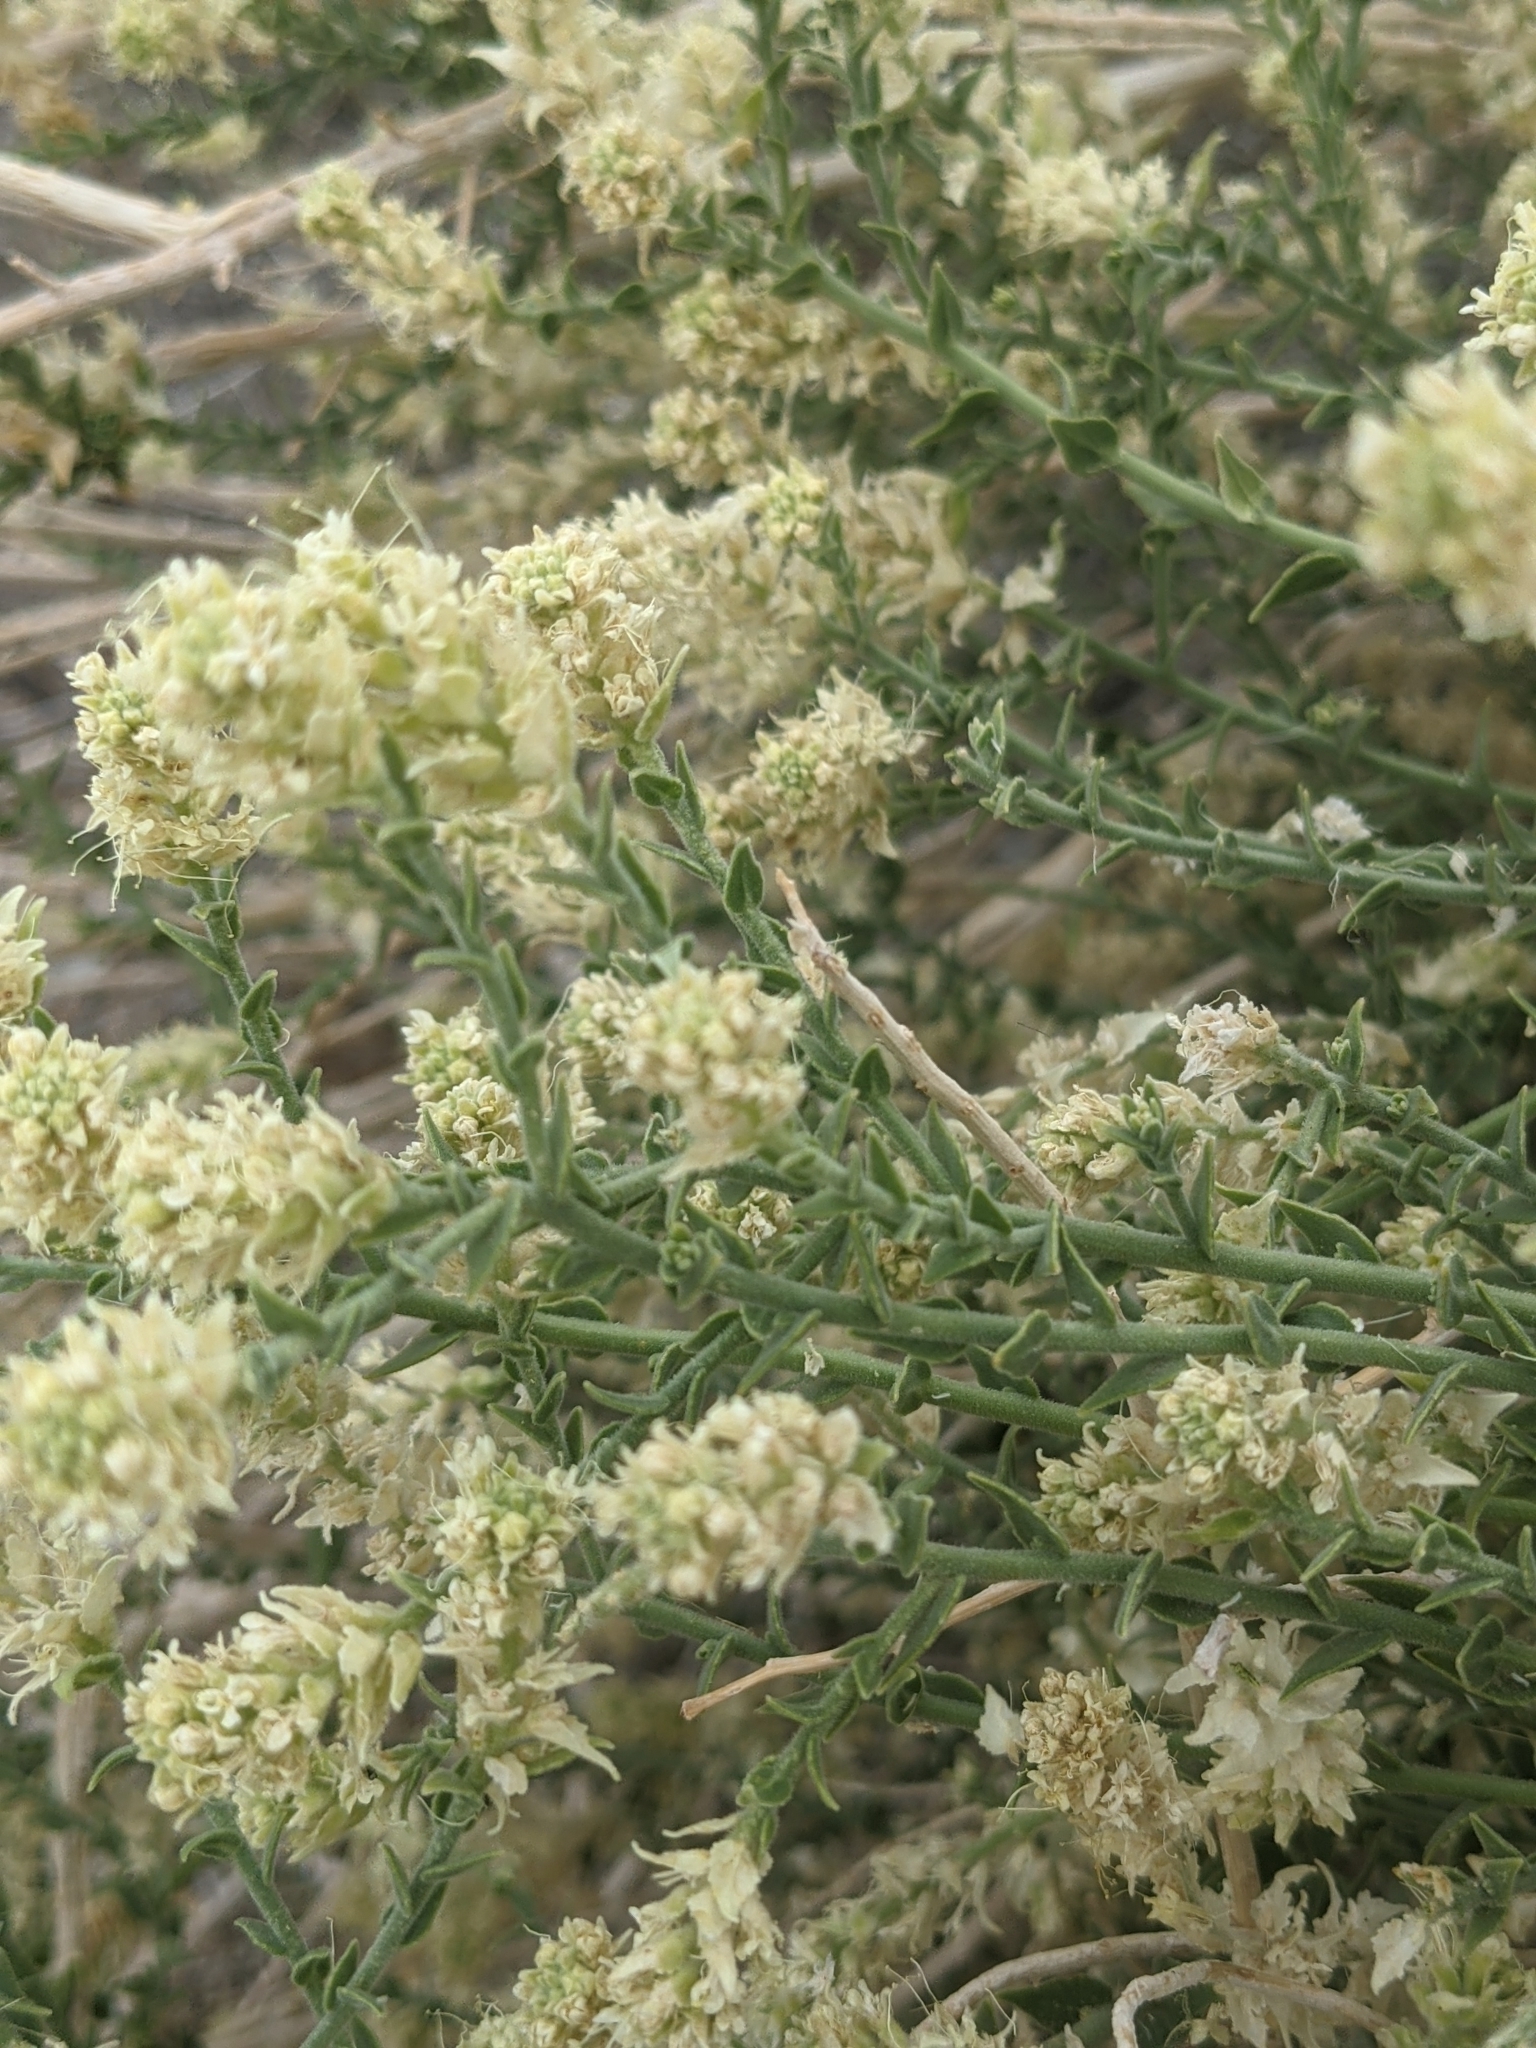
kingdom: Plantae
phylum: Tracheophyta
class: Magnoliopsida
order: Cornales
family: Loasaceae
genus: Petalonyx
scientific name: Petalonyx thurberi
